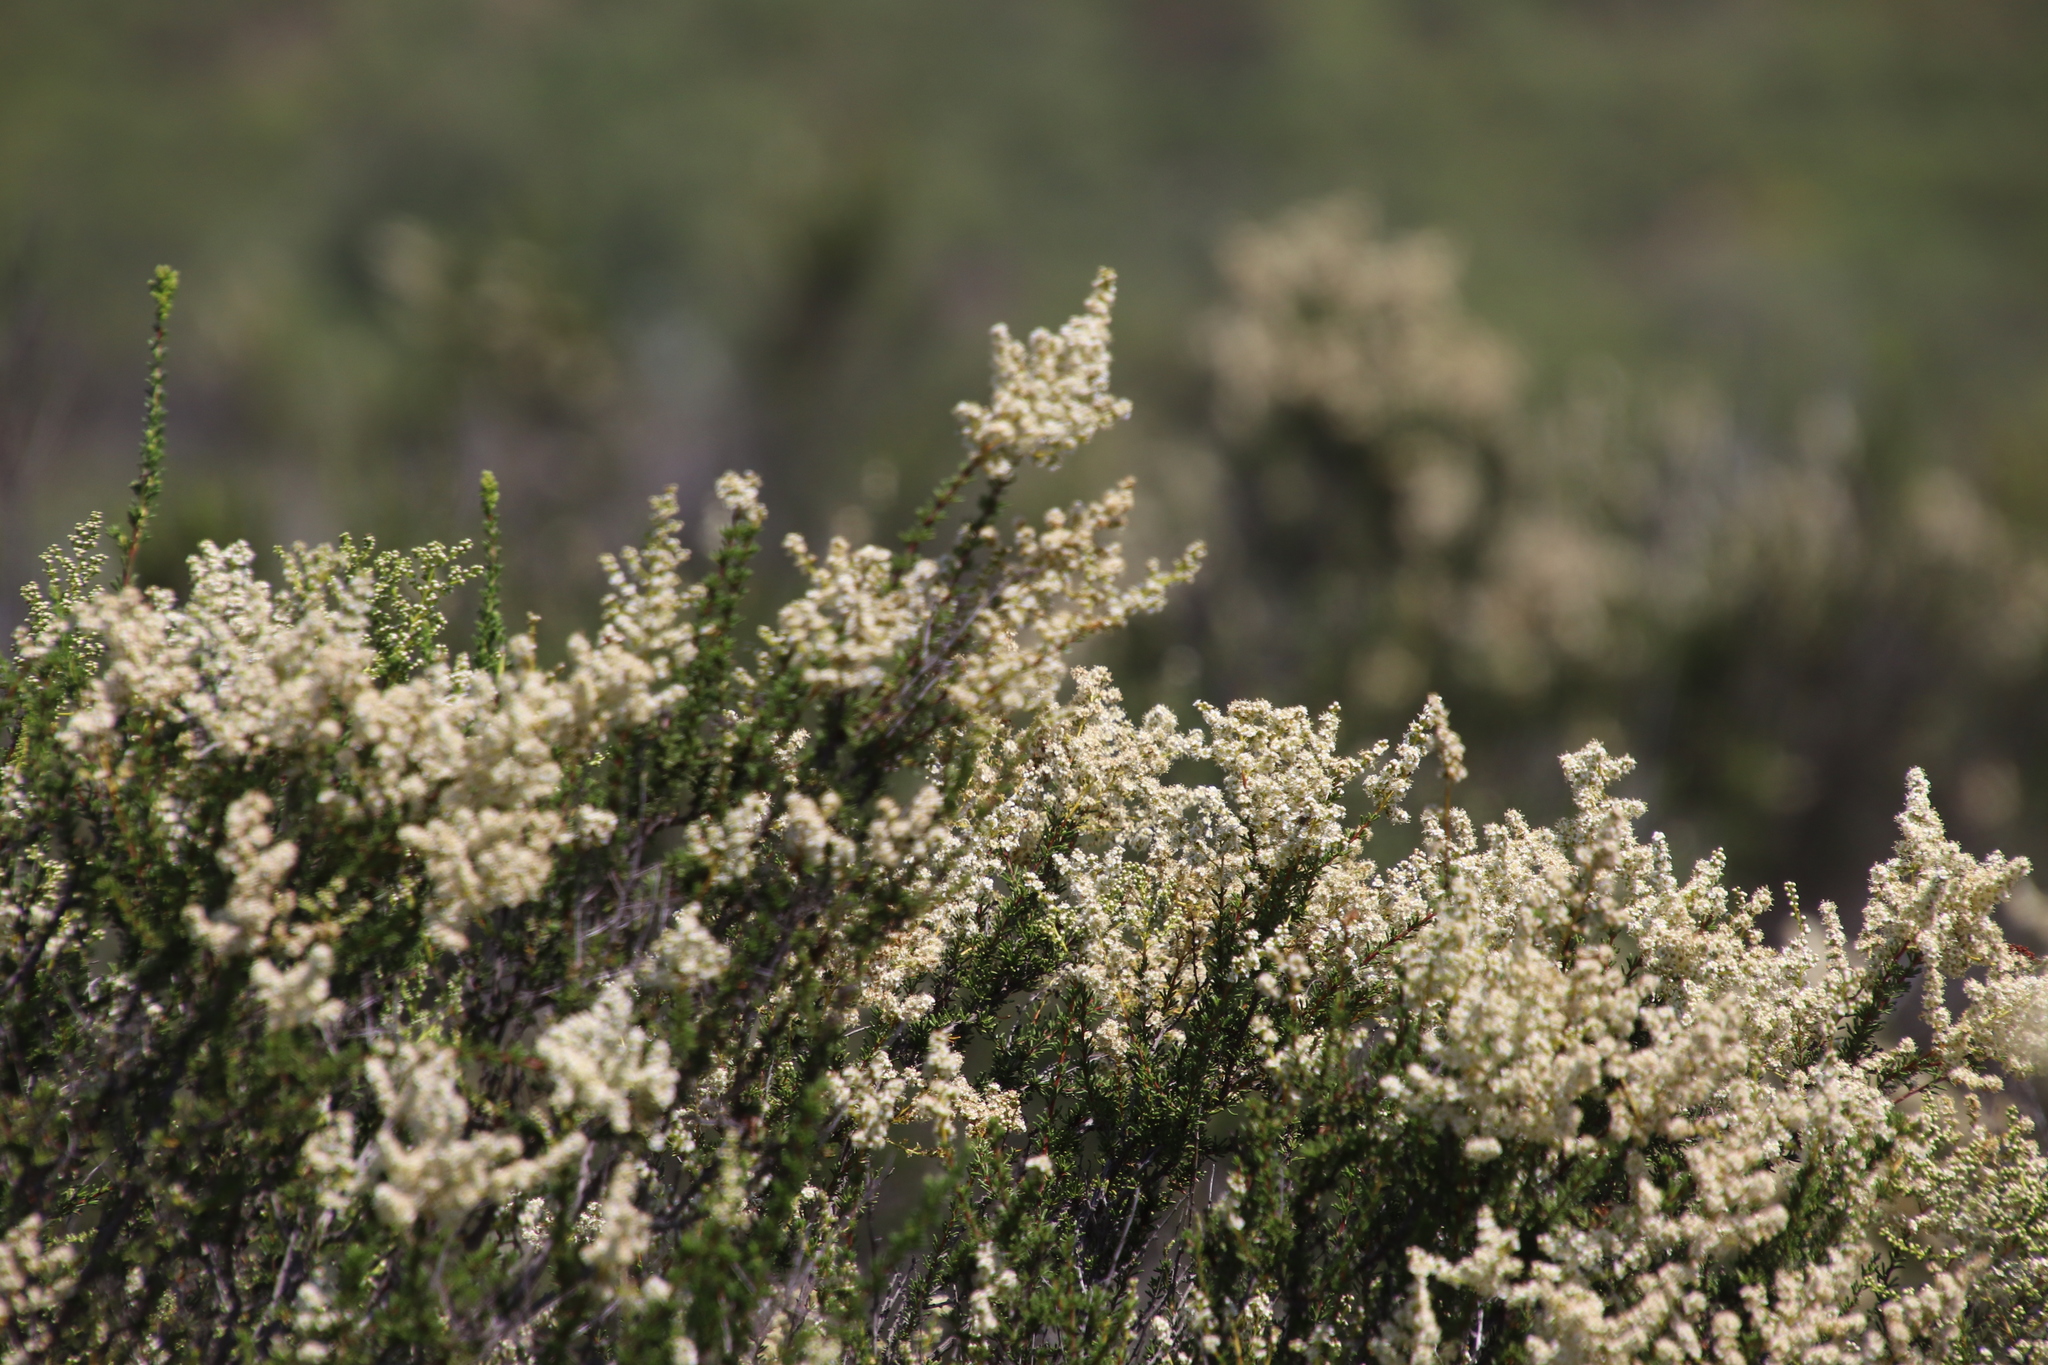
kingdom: Plantae
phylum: Tracheophyta
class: Magnoliopsida
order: Rosales
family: Rosaceae
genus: Adenostoma
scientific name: Adenostoma fasciculatum
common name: Chamise
